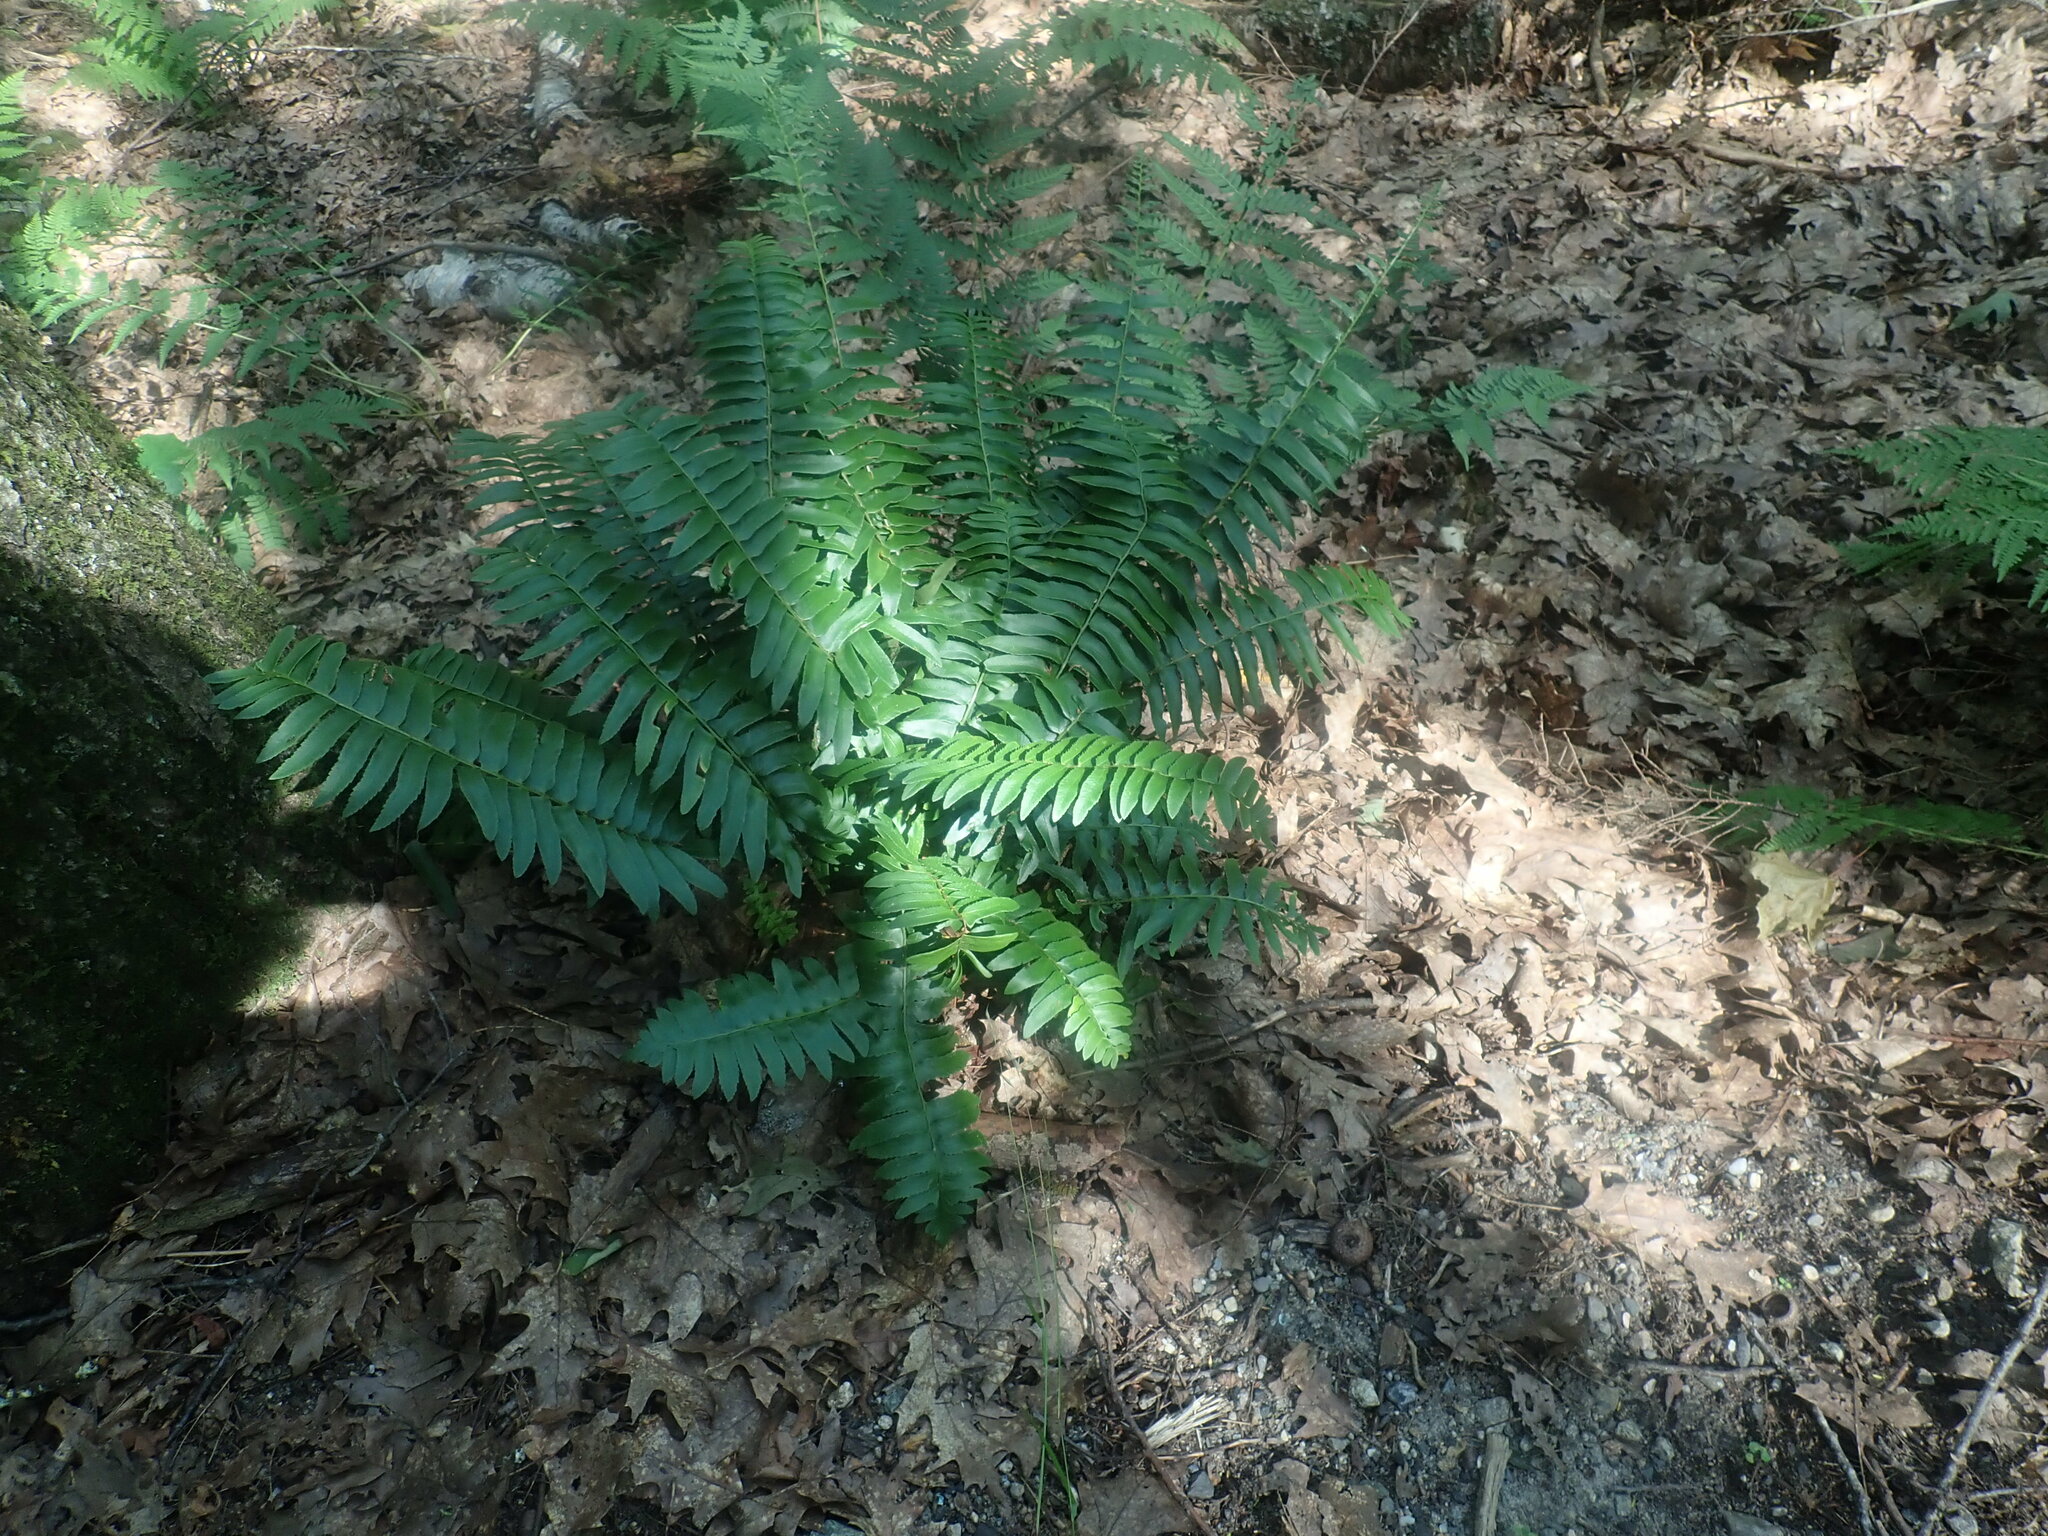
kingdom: Plantae
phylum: Tracheophyta
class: Polypodiopsida
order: Polypodiales
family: Dryopteridaceae
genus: Polystichum
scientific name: Polystichum acrostichoides
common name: Christmas fern
